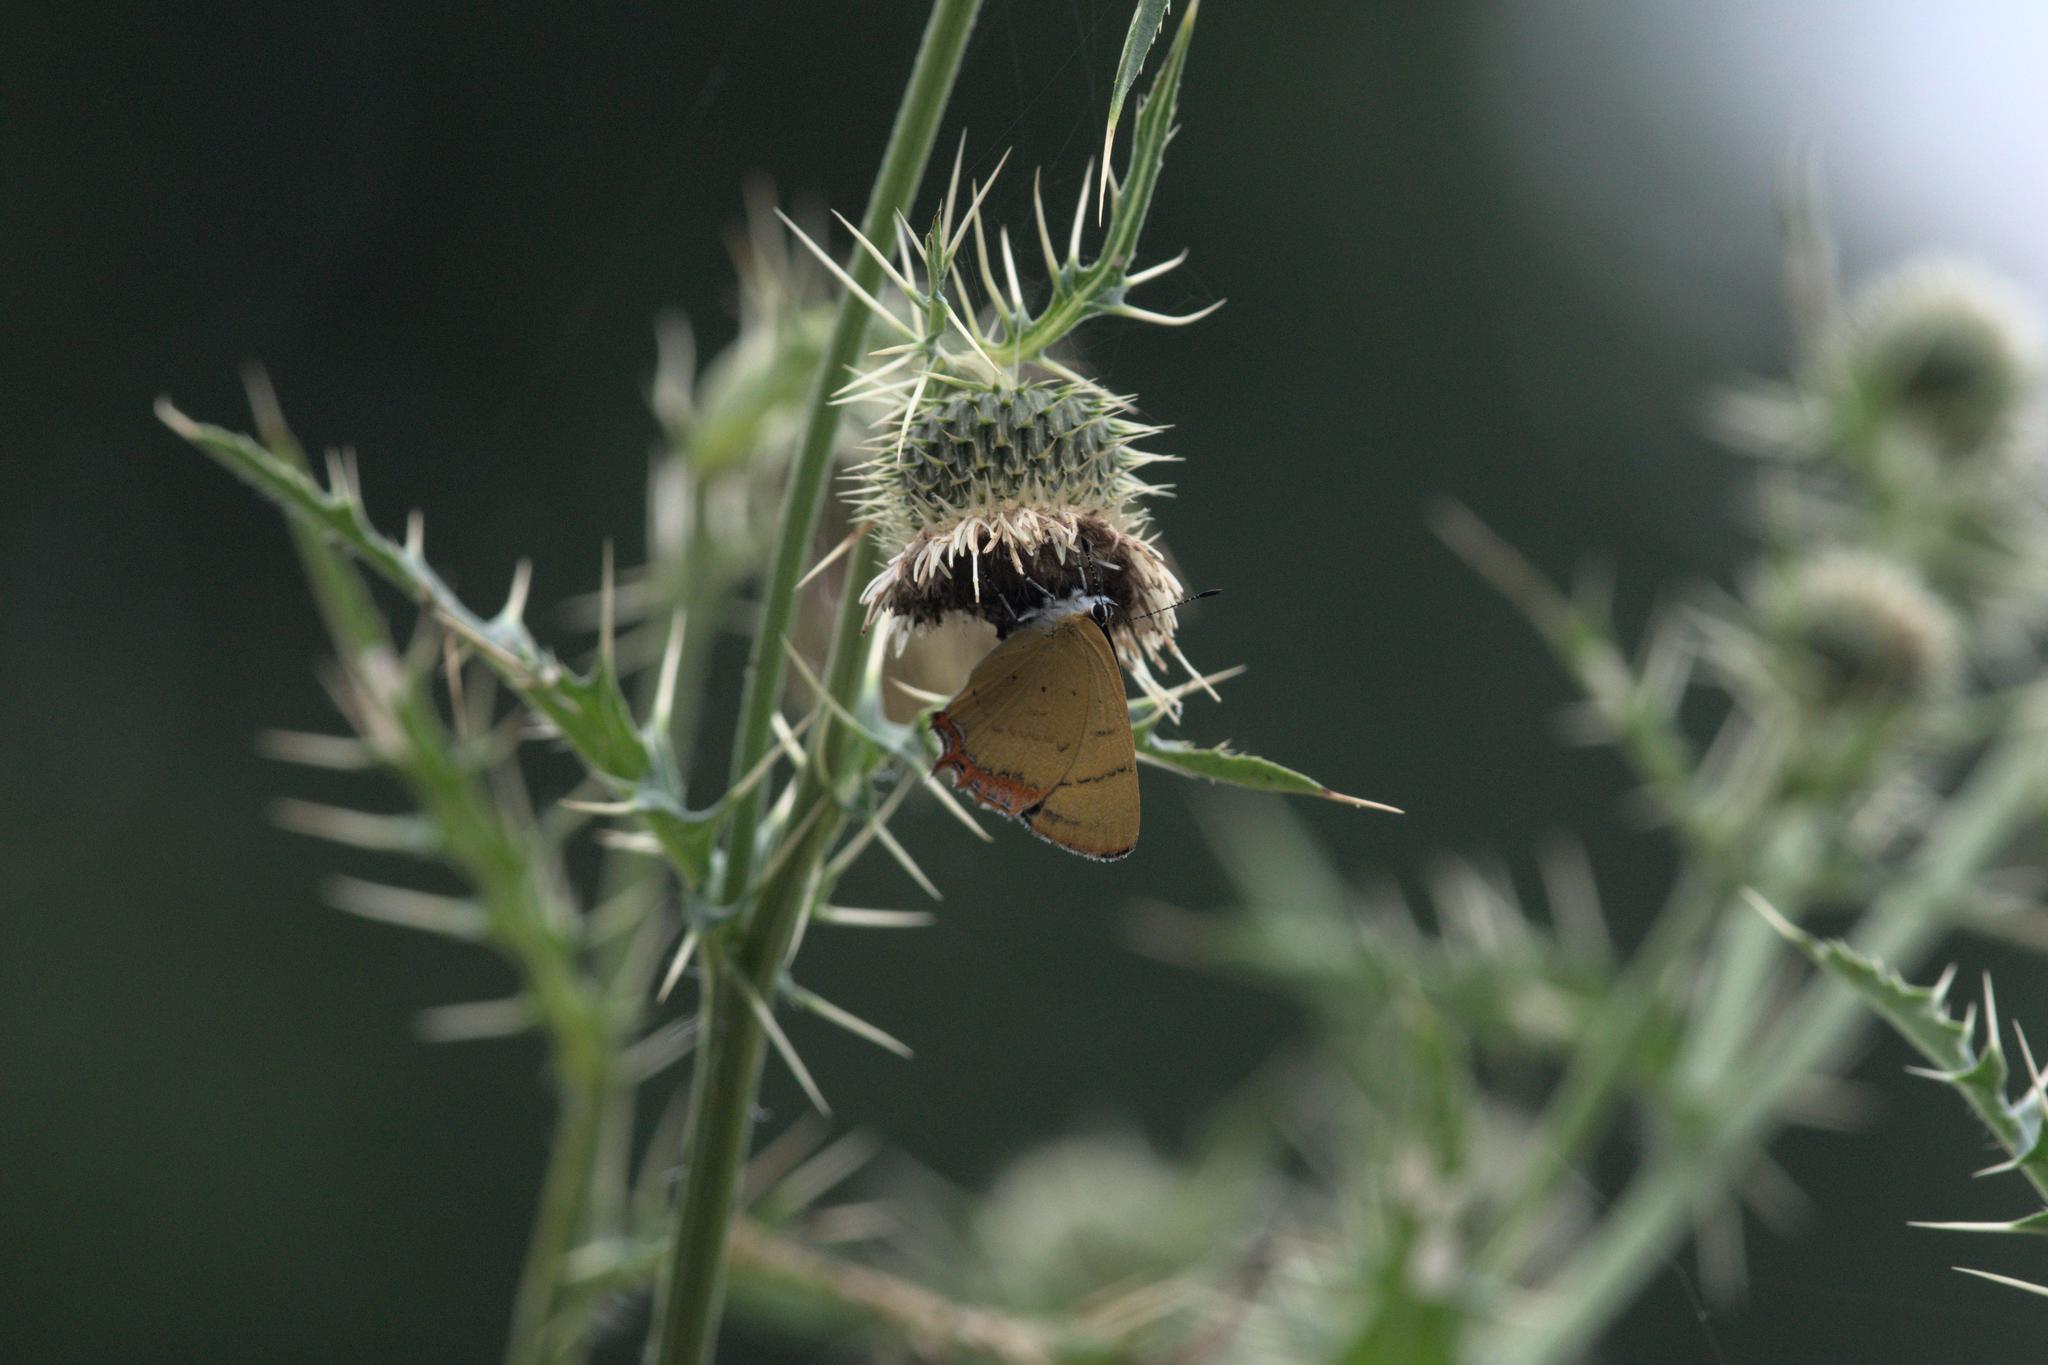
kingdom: Animalia
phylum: Arthropoda
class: Insecta
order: Lepidoptera
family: Lycaenidae
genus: Heliophorus
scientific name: Heliophorus
